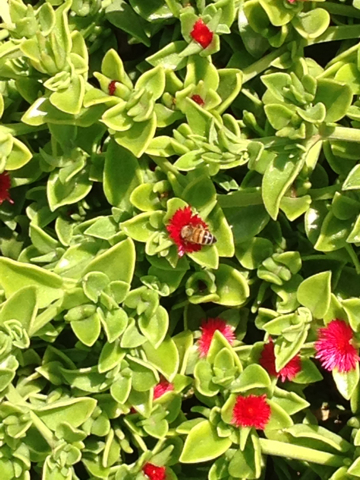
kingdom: Animalia
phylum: Arthropoda
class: Insecta
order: Hymenoptera
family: Apidae
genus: Apis
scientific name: Apis mellifera
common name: Honey bee
